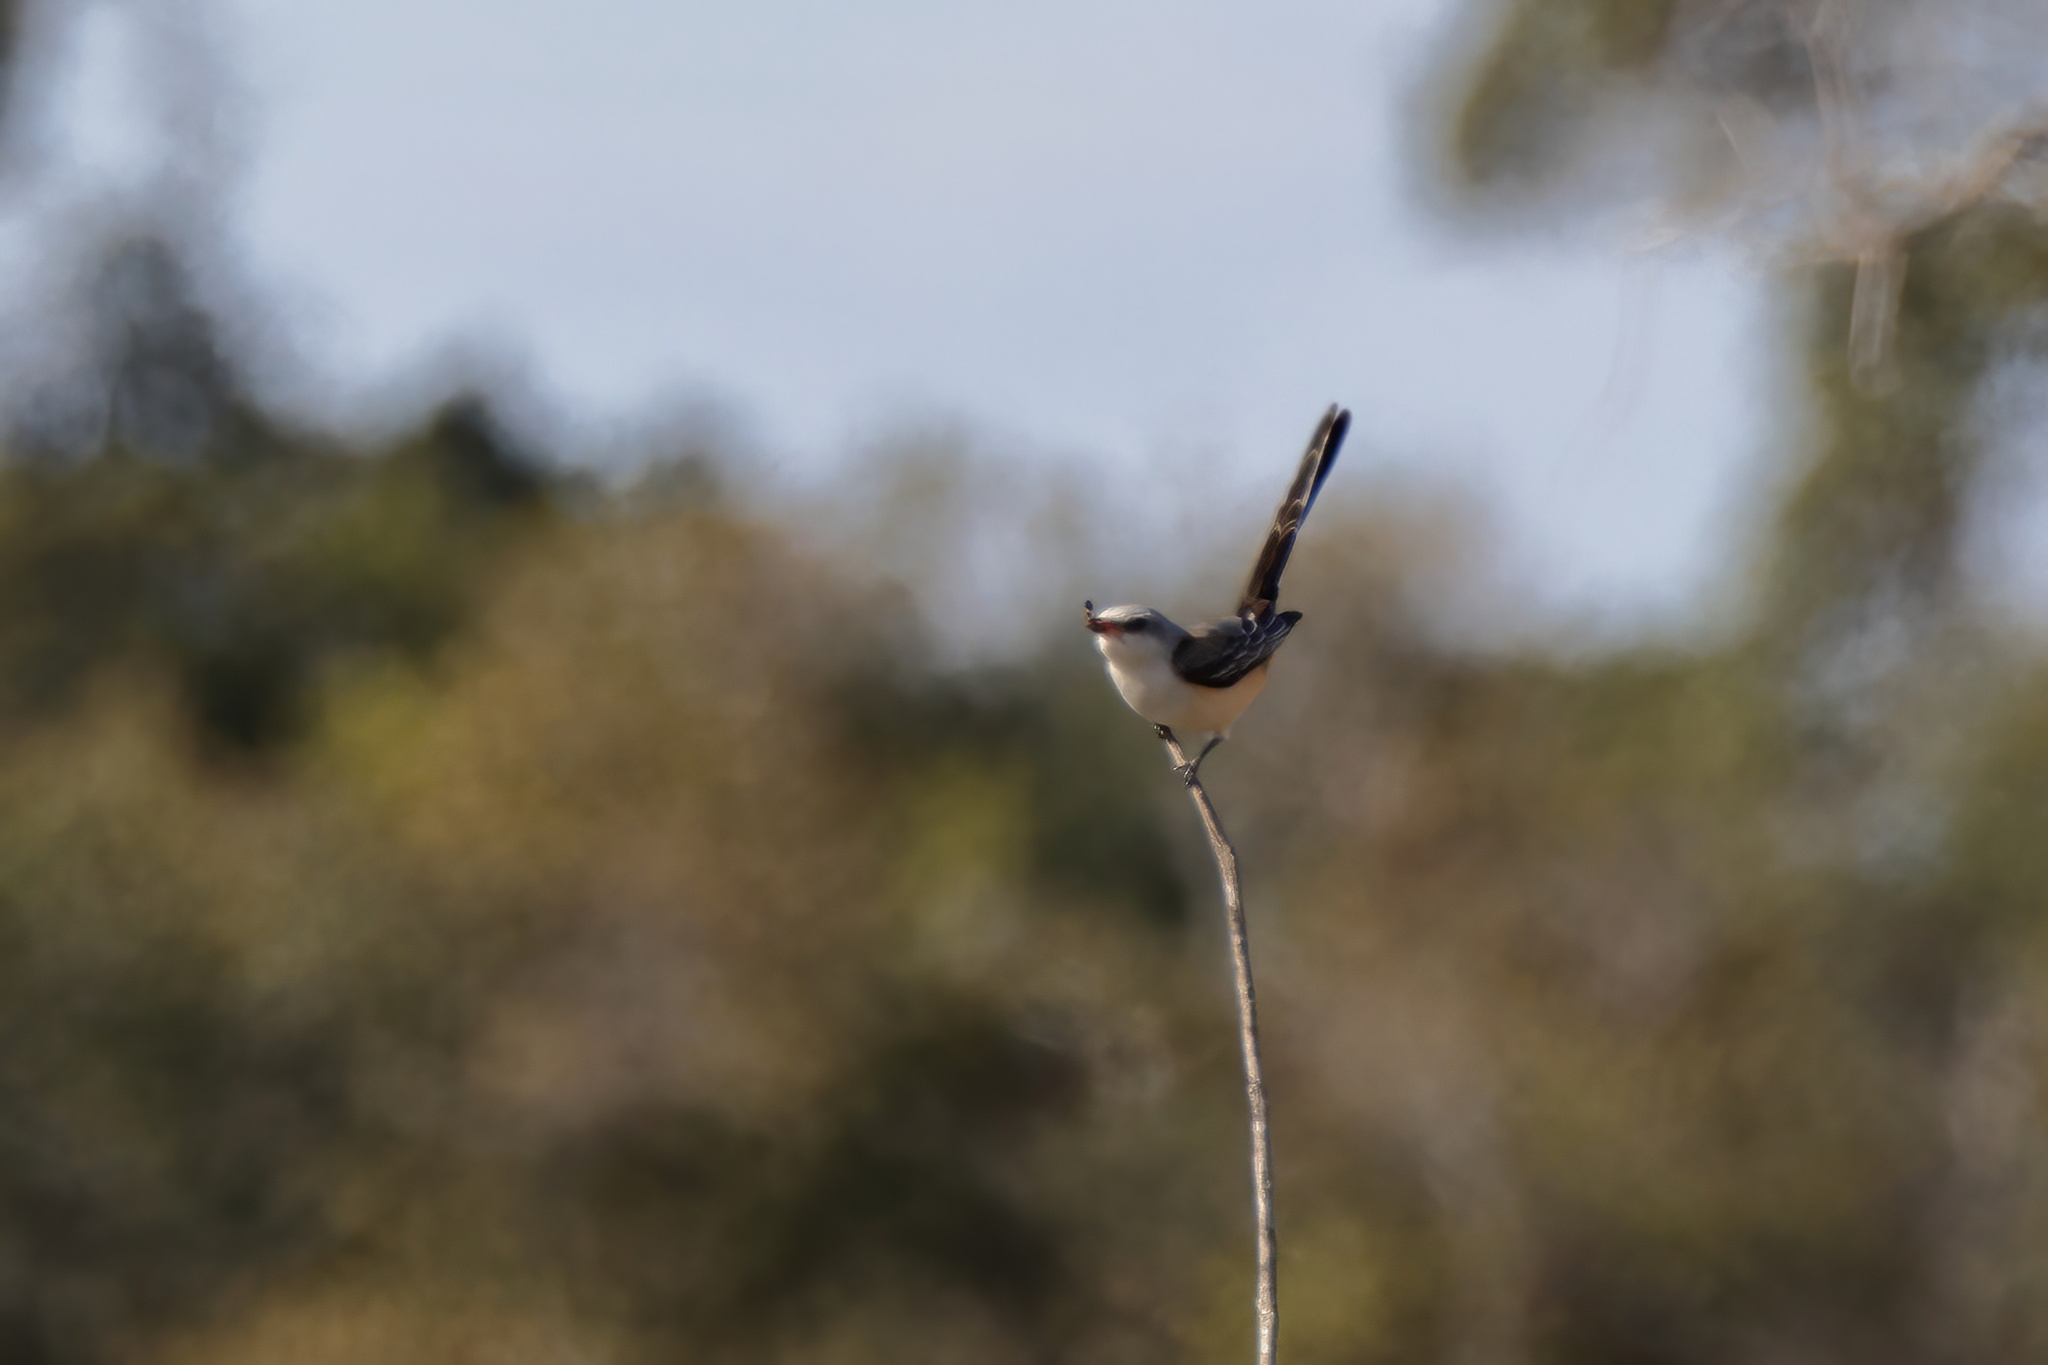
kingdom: Animalia
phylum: Chordata
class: Aves
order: Passeriformes
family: Tyrannidae
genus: Tyrannus
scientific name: Tyrannus forficatus
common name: Scissor-tailed flycatcher
